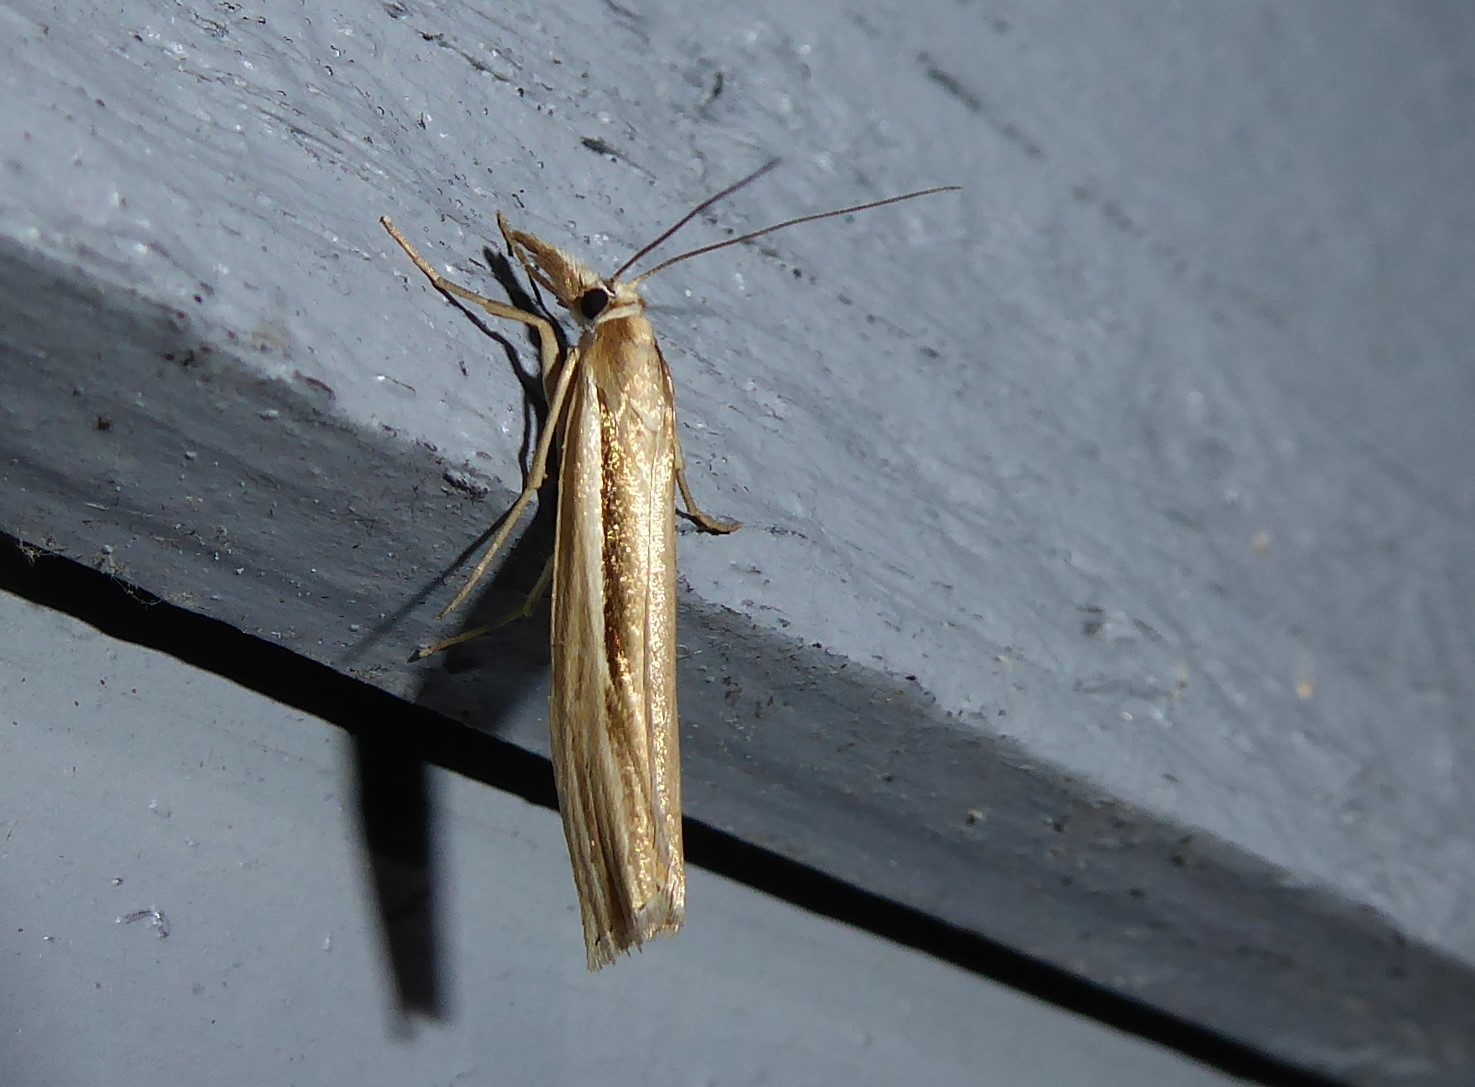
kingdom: Animalia
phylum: Arthropoda
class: Insecta
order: Lepidoptera
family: Crambidae
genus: Orocrambus
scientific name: Orocrambus ramosellus
